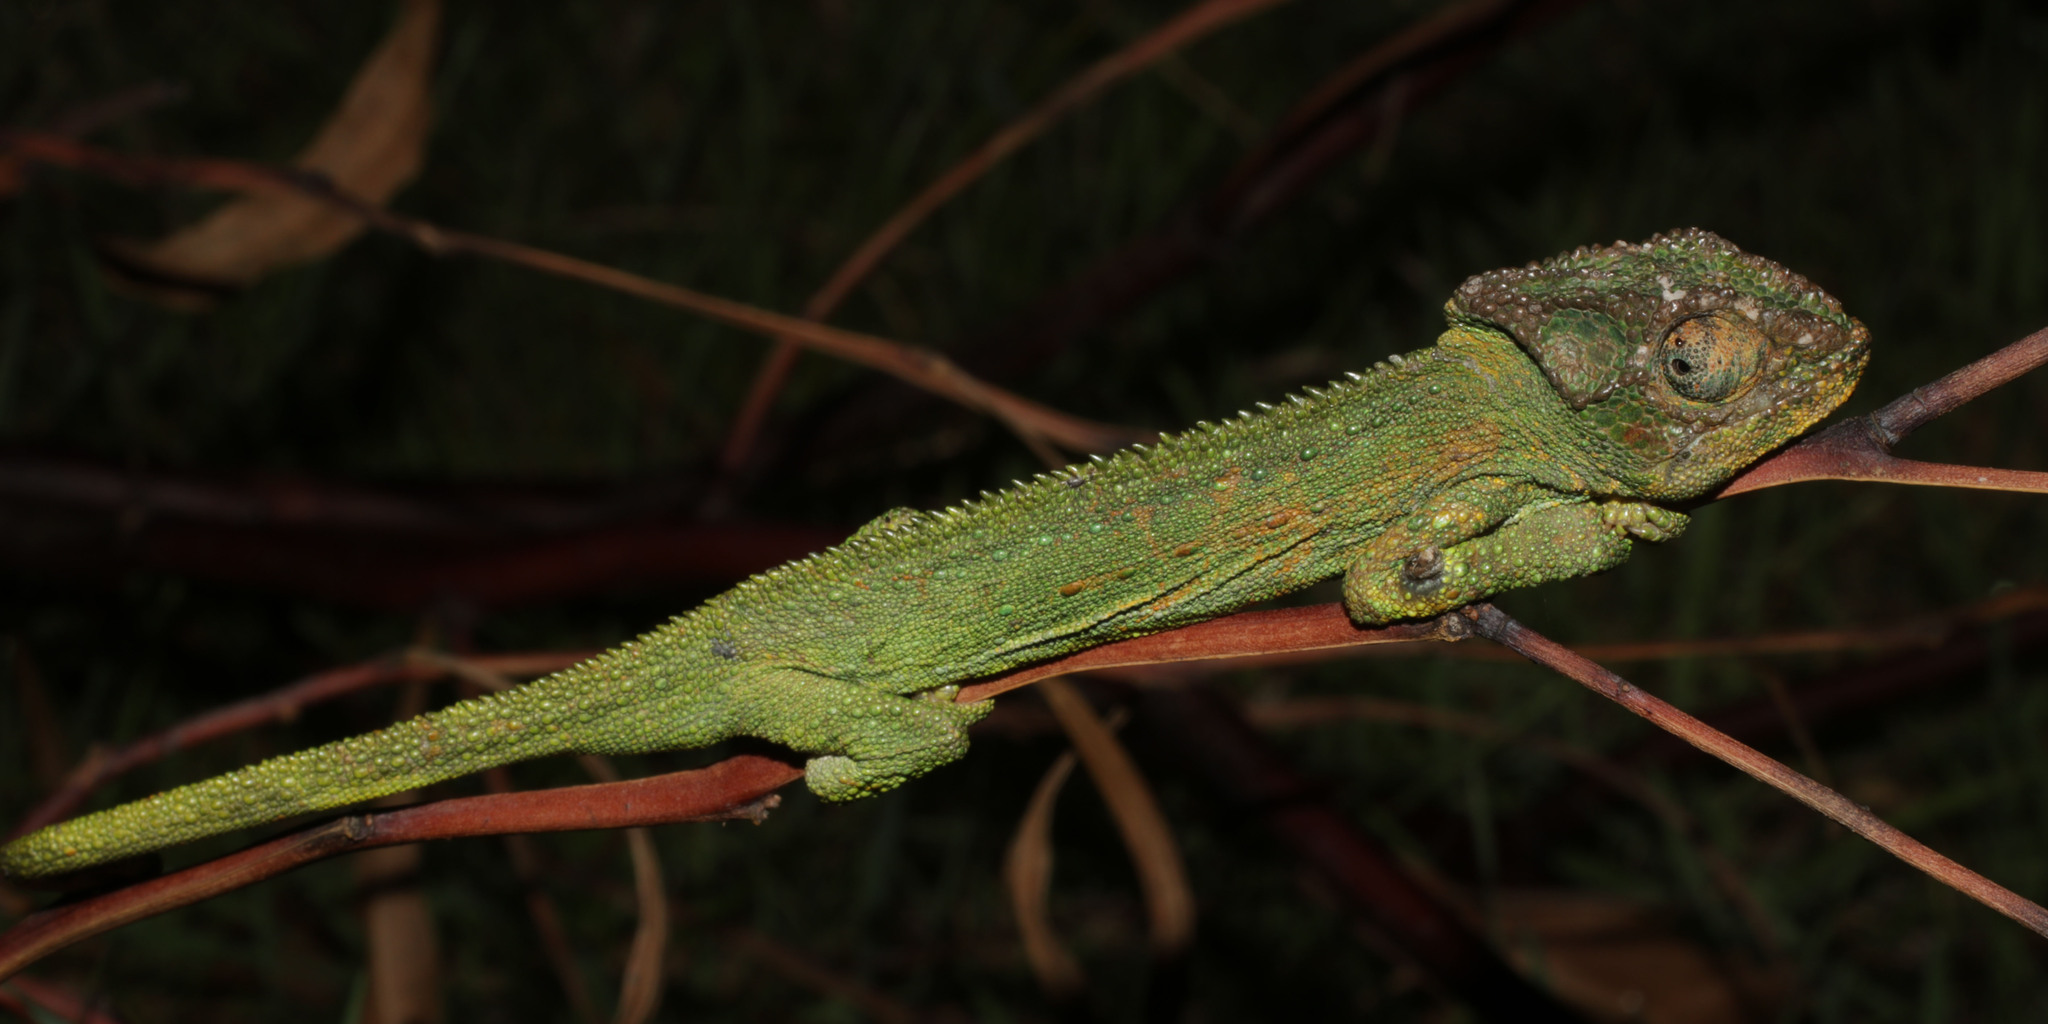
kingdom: Animalia
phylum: Chordata
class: Squamata
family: Chamaeleonidae
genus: Bradypodion
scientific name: Bradypodion pumilum
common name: Cape dwarf chameleon
